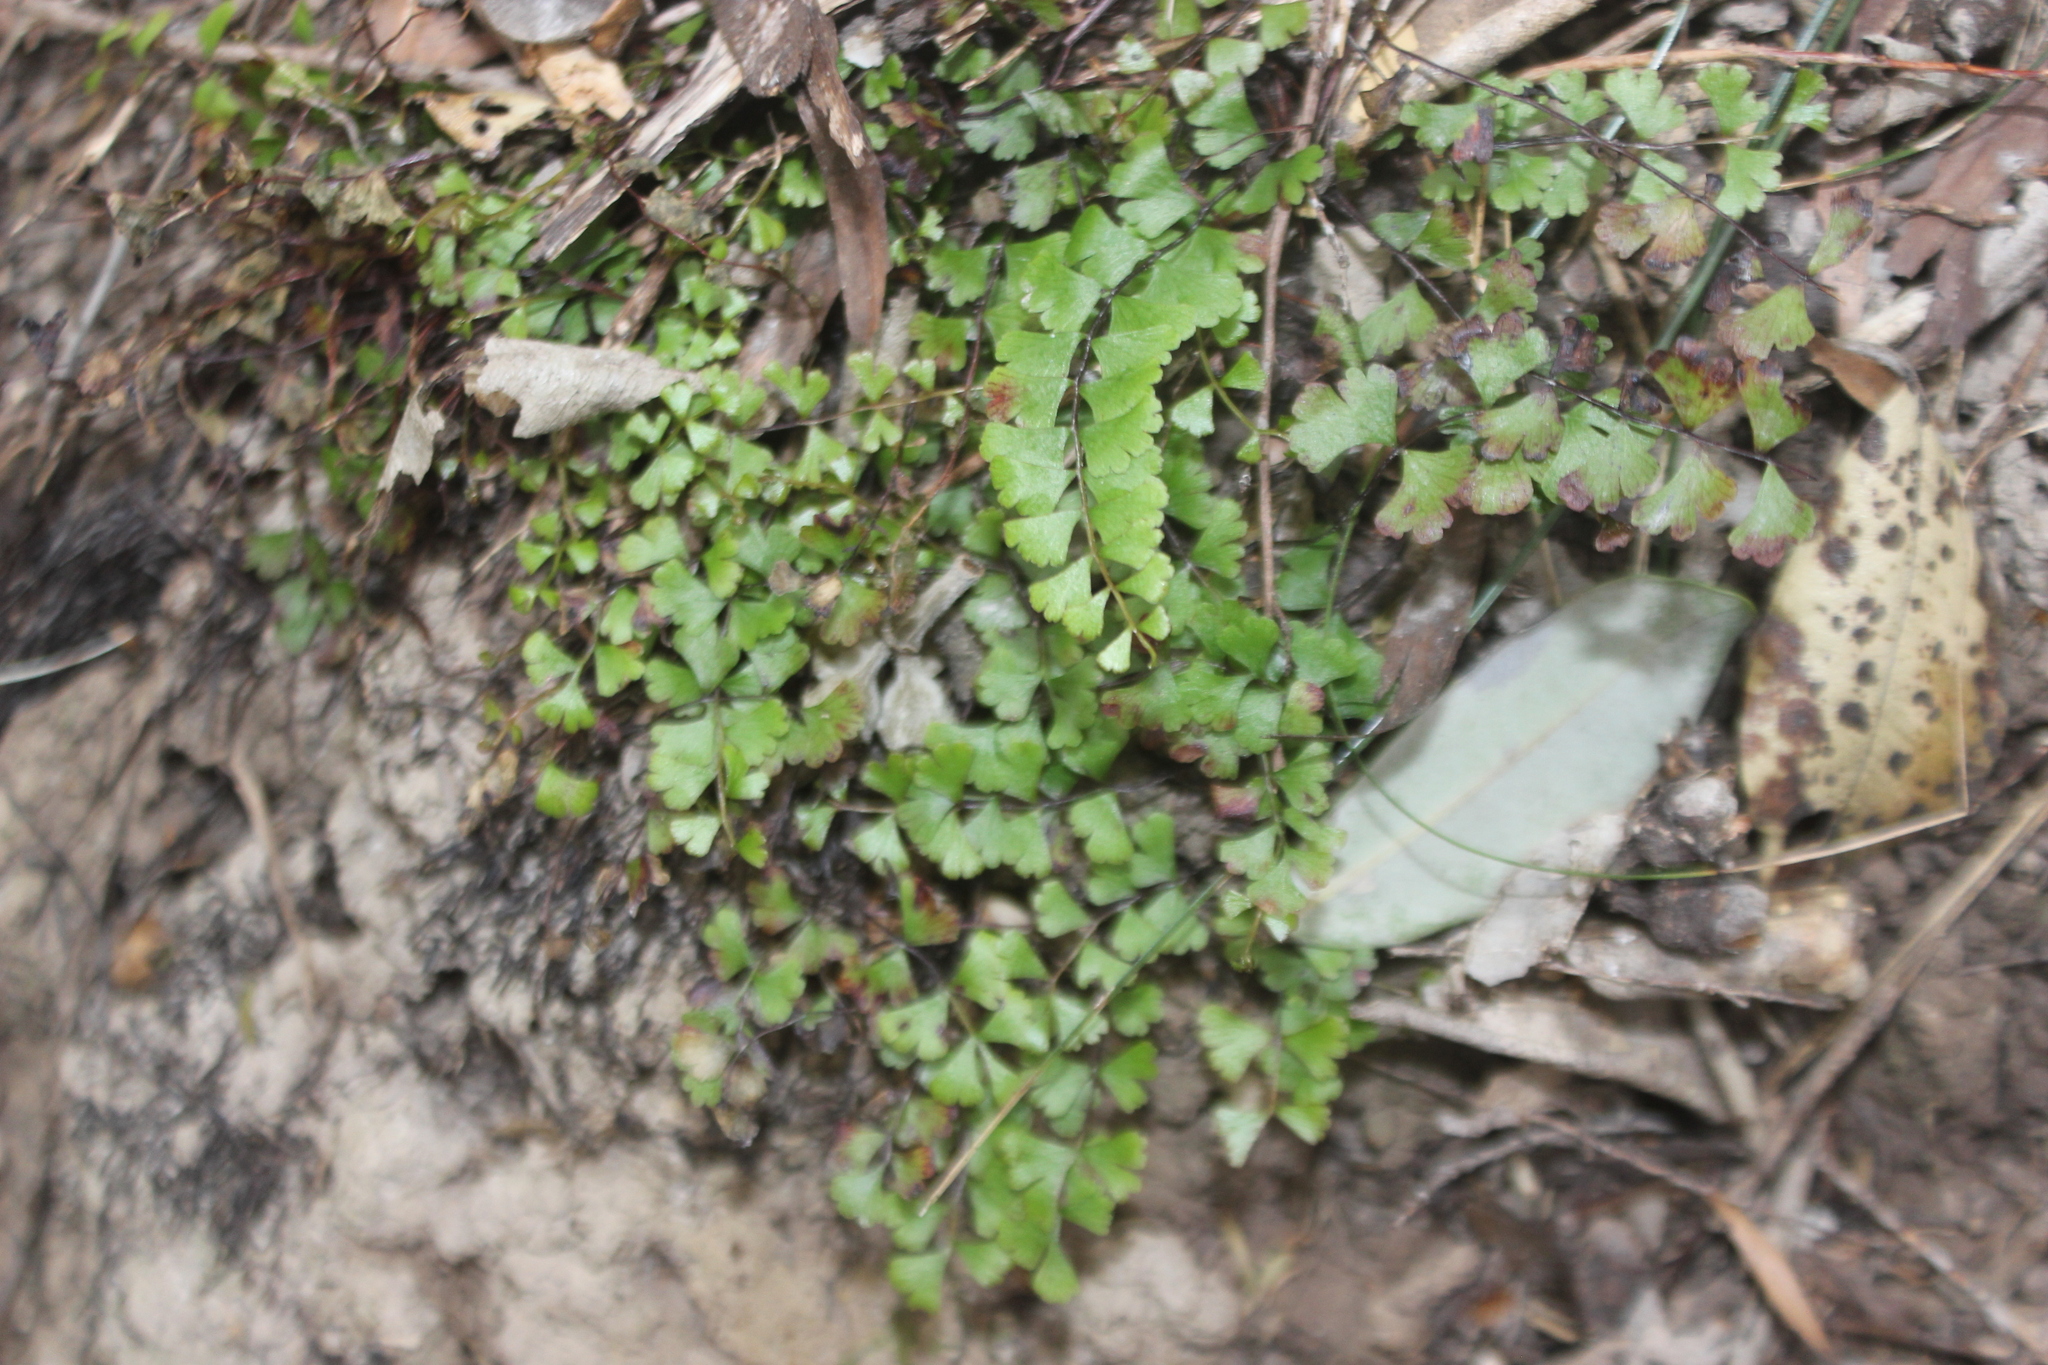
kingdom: Plantae
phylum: Tracheophyta
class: Polypodiopsida
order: Polypodiales
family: Lindsaeaceae
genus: Lindsaea
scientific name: Lindsaea linearis
